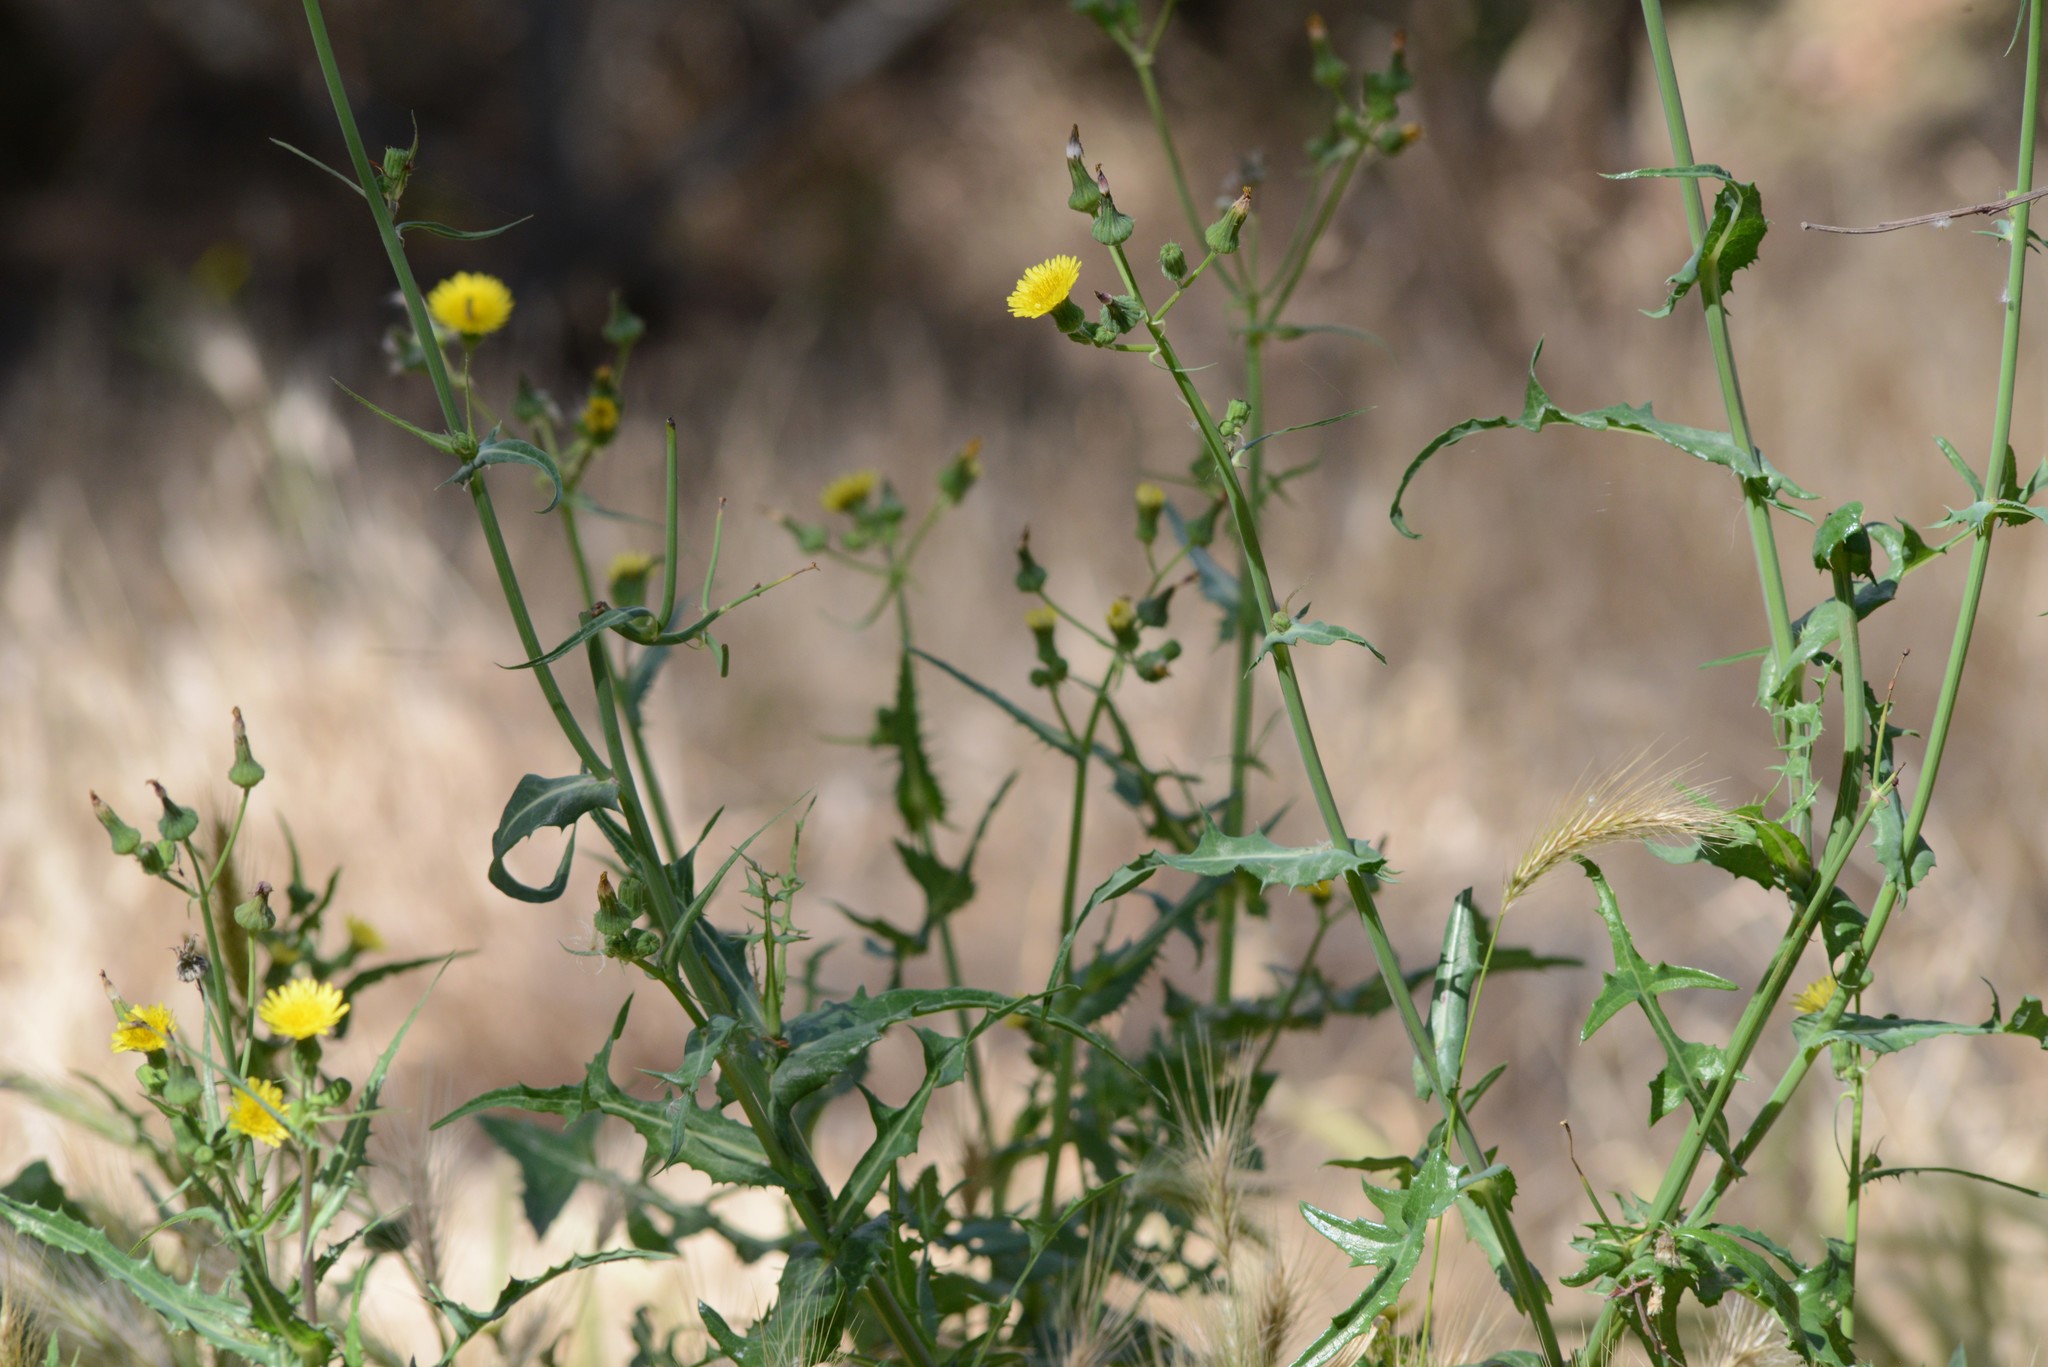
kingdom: Plantae
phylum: Tracheophyta
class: Magnoliopsida
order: Asterales
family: Asteraceae
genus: Sonchus
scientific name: Sonchus asper
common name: Prickly sow-thistle
